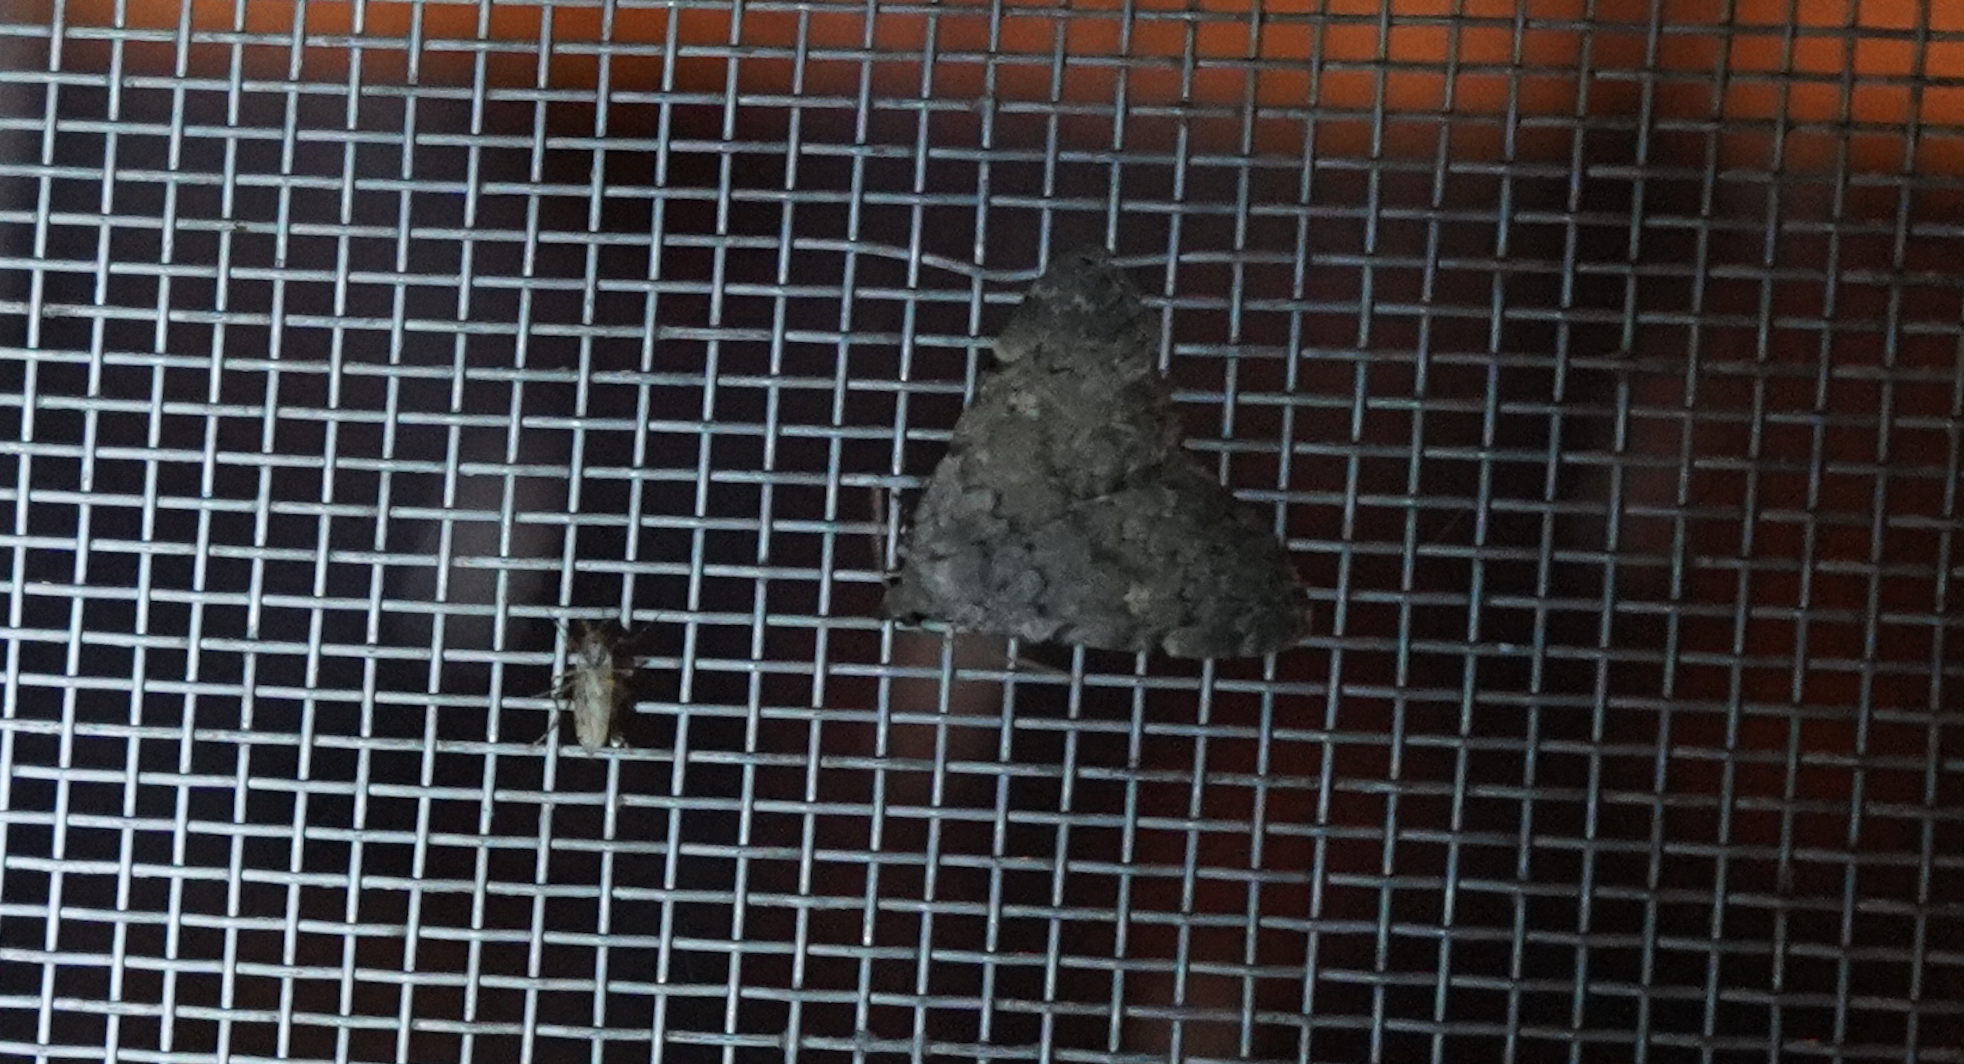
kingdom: Animalia
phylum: Arthropoda
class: Insecta
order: Lepidoptera
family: Erebidae
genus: Idia
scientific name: Idia aemula
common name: Common idia moth
